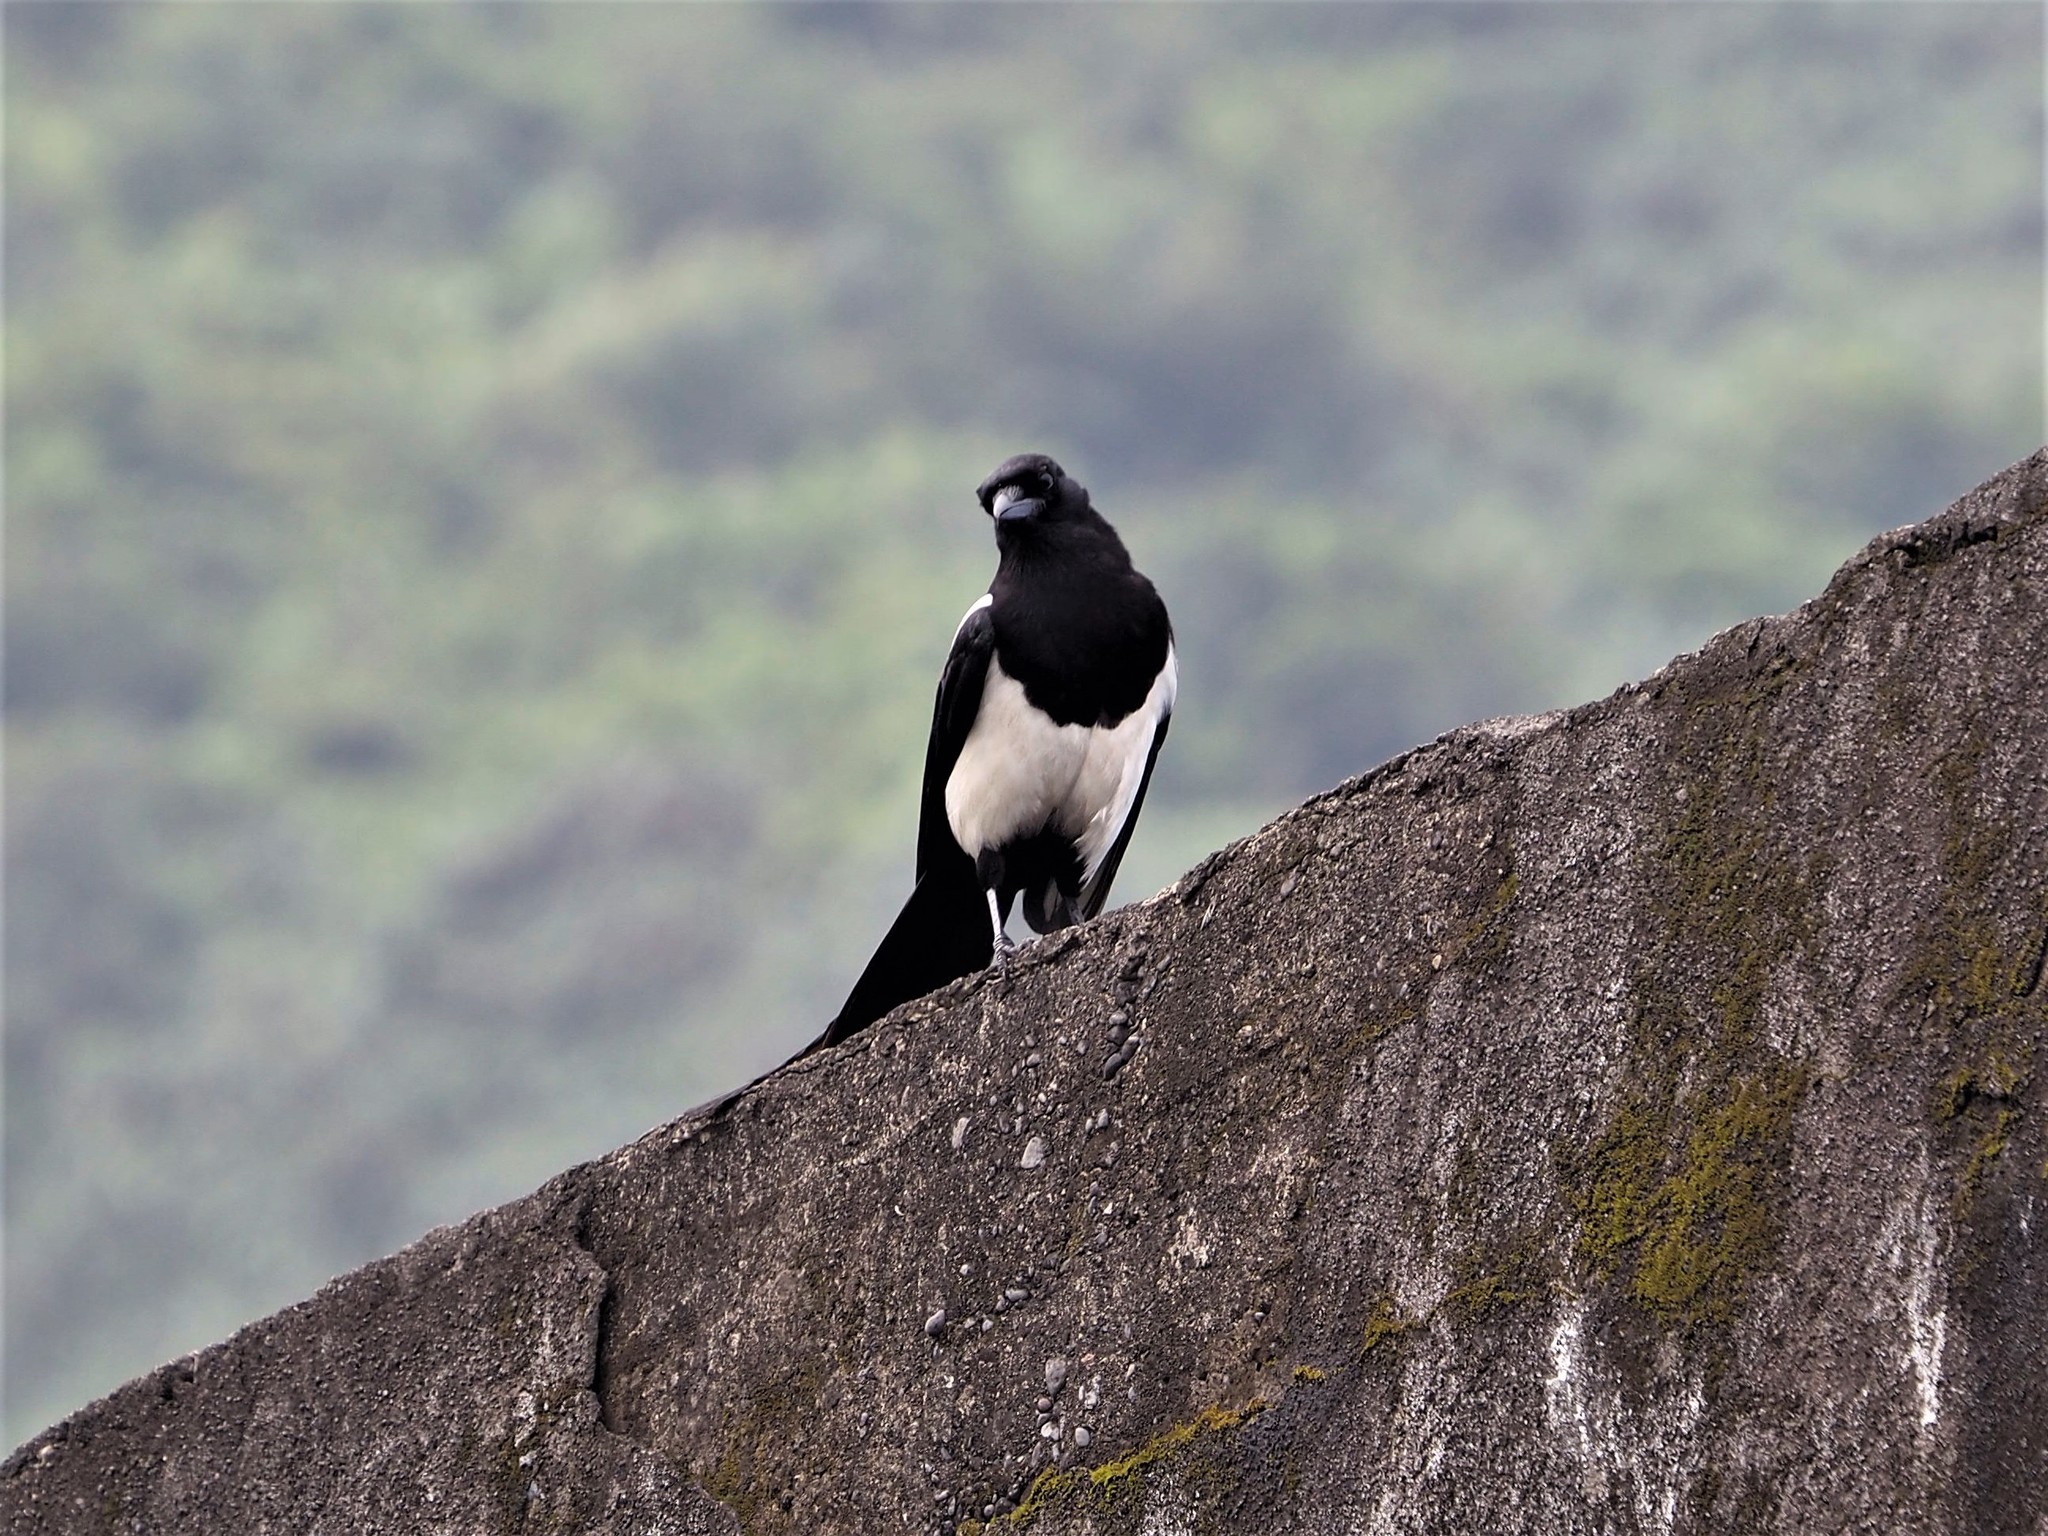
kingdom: Animalia
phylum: Chordata
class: Aves
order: Passeriformes
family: Corvidae
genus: Pica
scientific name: Pica serica
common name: Oriental magpie
